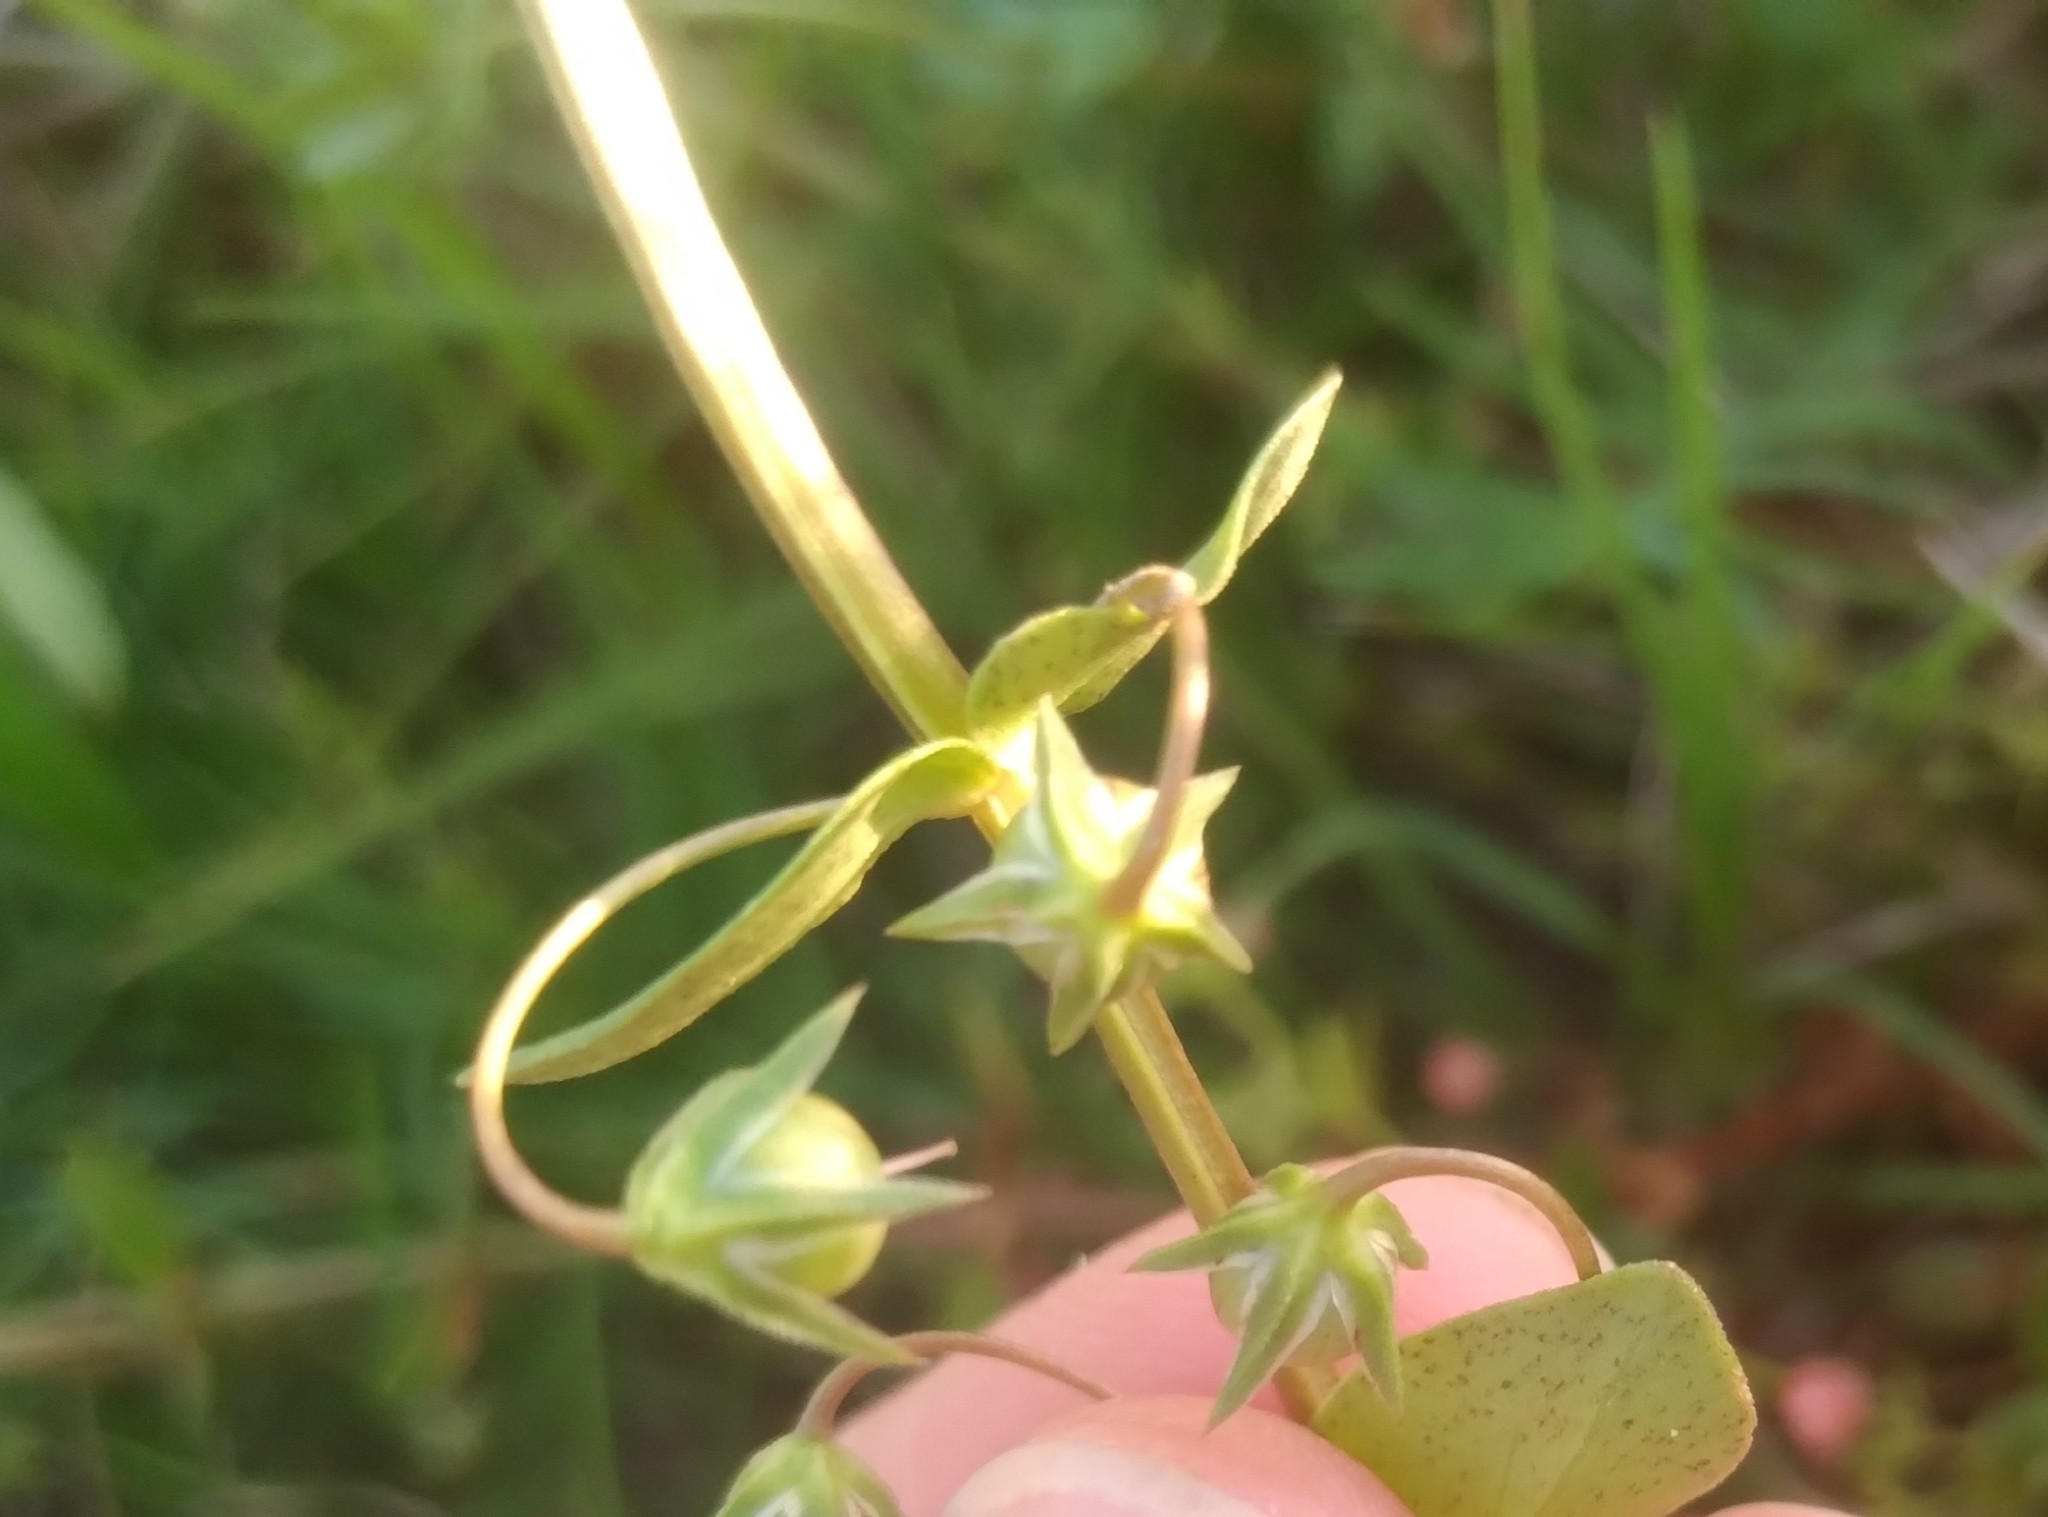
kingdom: Plantae
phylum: Tracheophyta
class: Magnoliopsida
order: Ericales
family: Primulaceae
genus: Lysimachia
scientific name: Lysimachia arvensis
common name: Scarlet pimpernel
